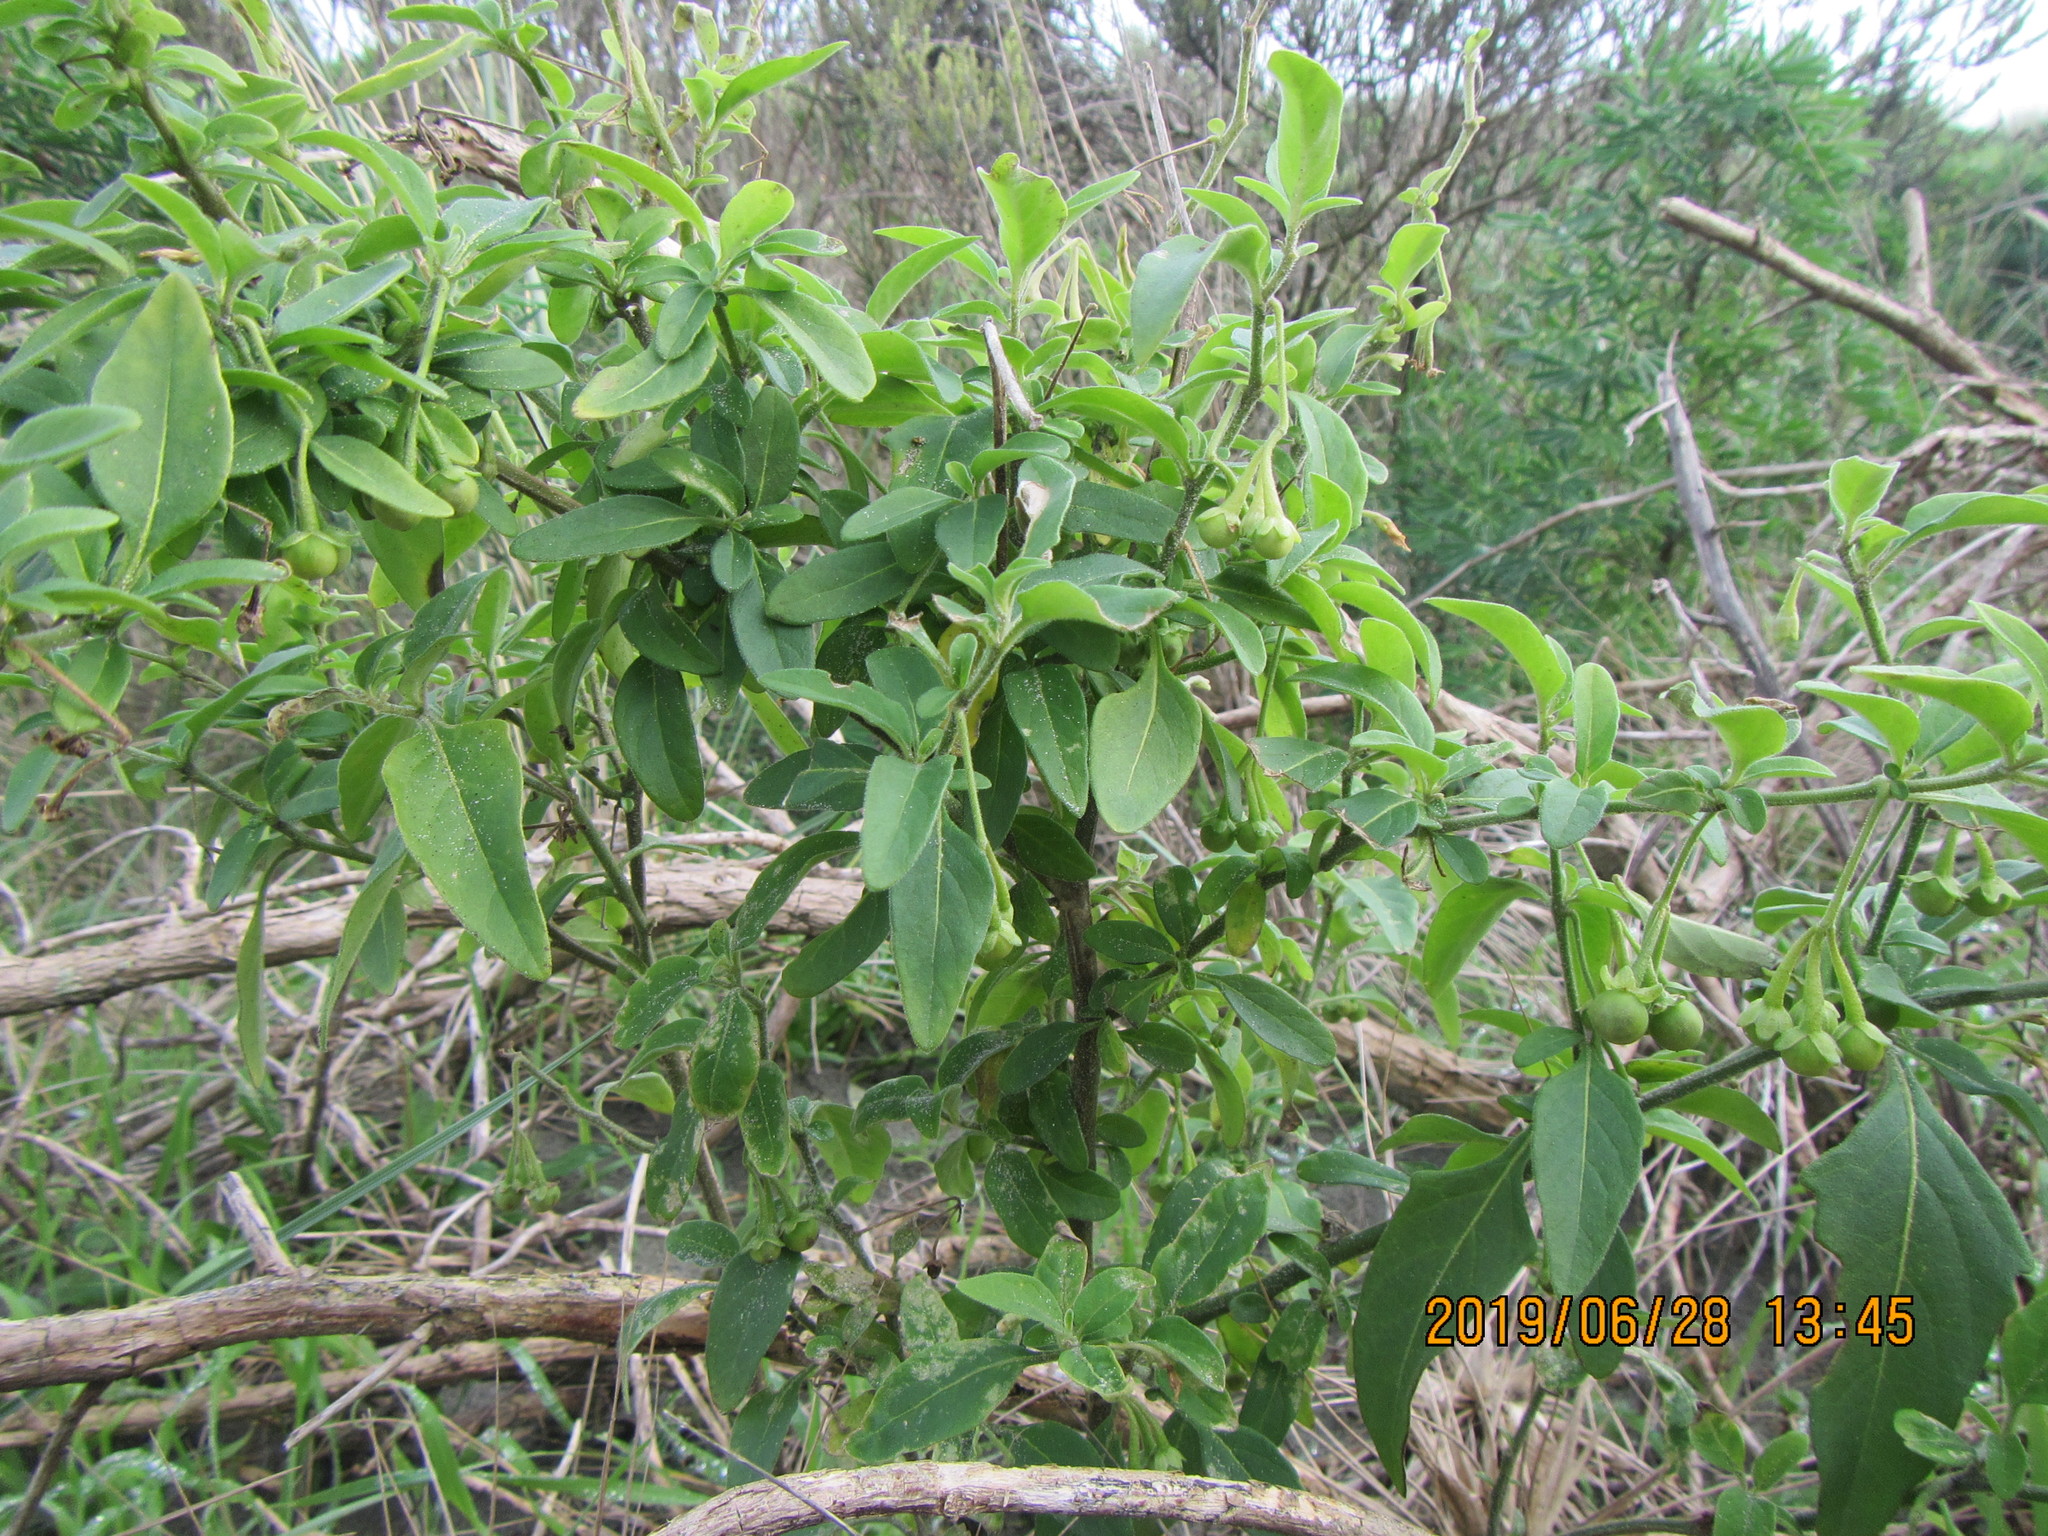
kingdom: Plantae
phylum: Tracheophyta
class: Magnoliopsida
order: Solanales
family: Solanaceae
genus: Solanum
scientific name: Solanum chenopodioides
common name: Tall nightshade
